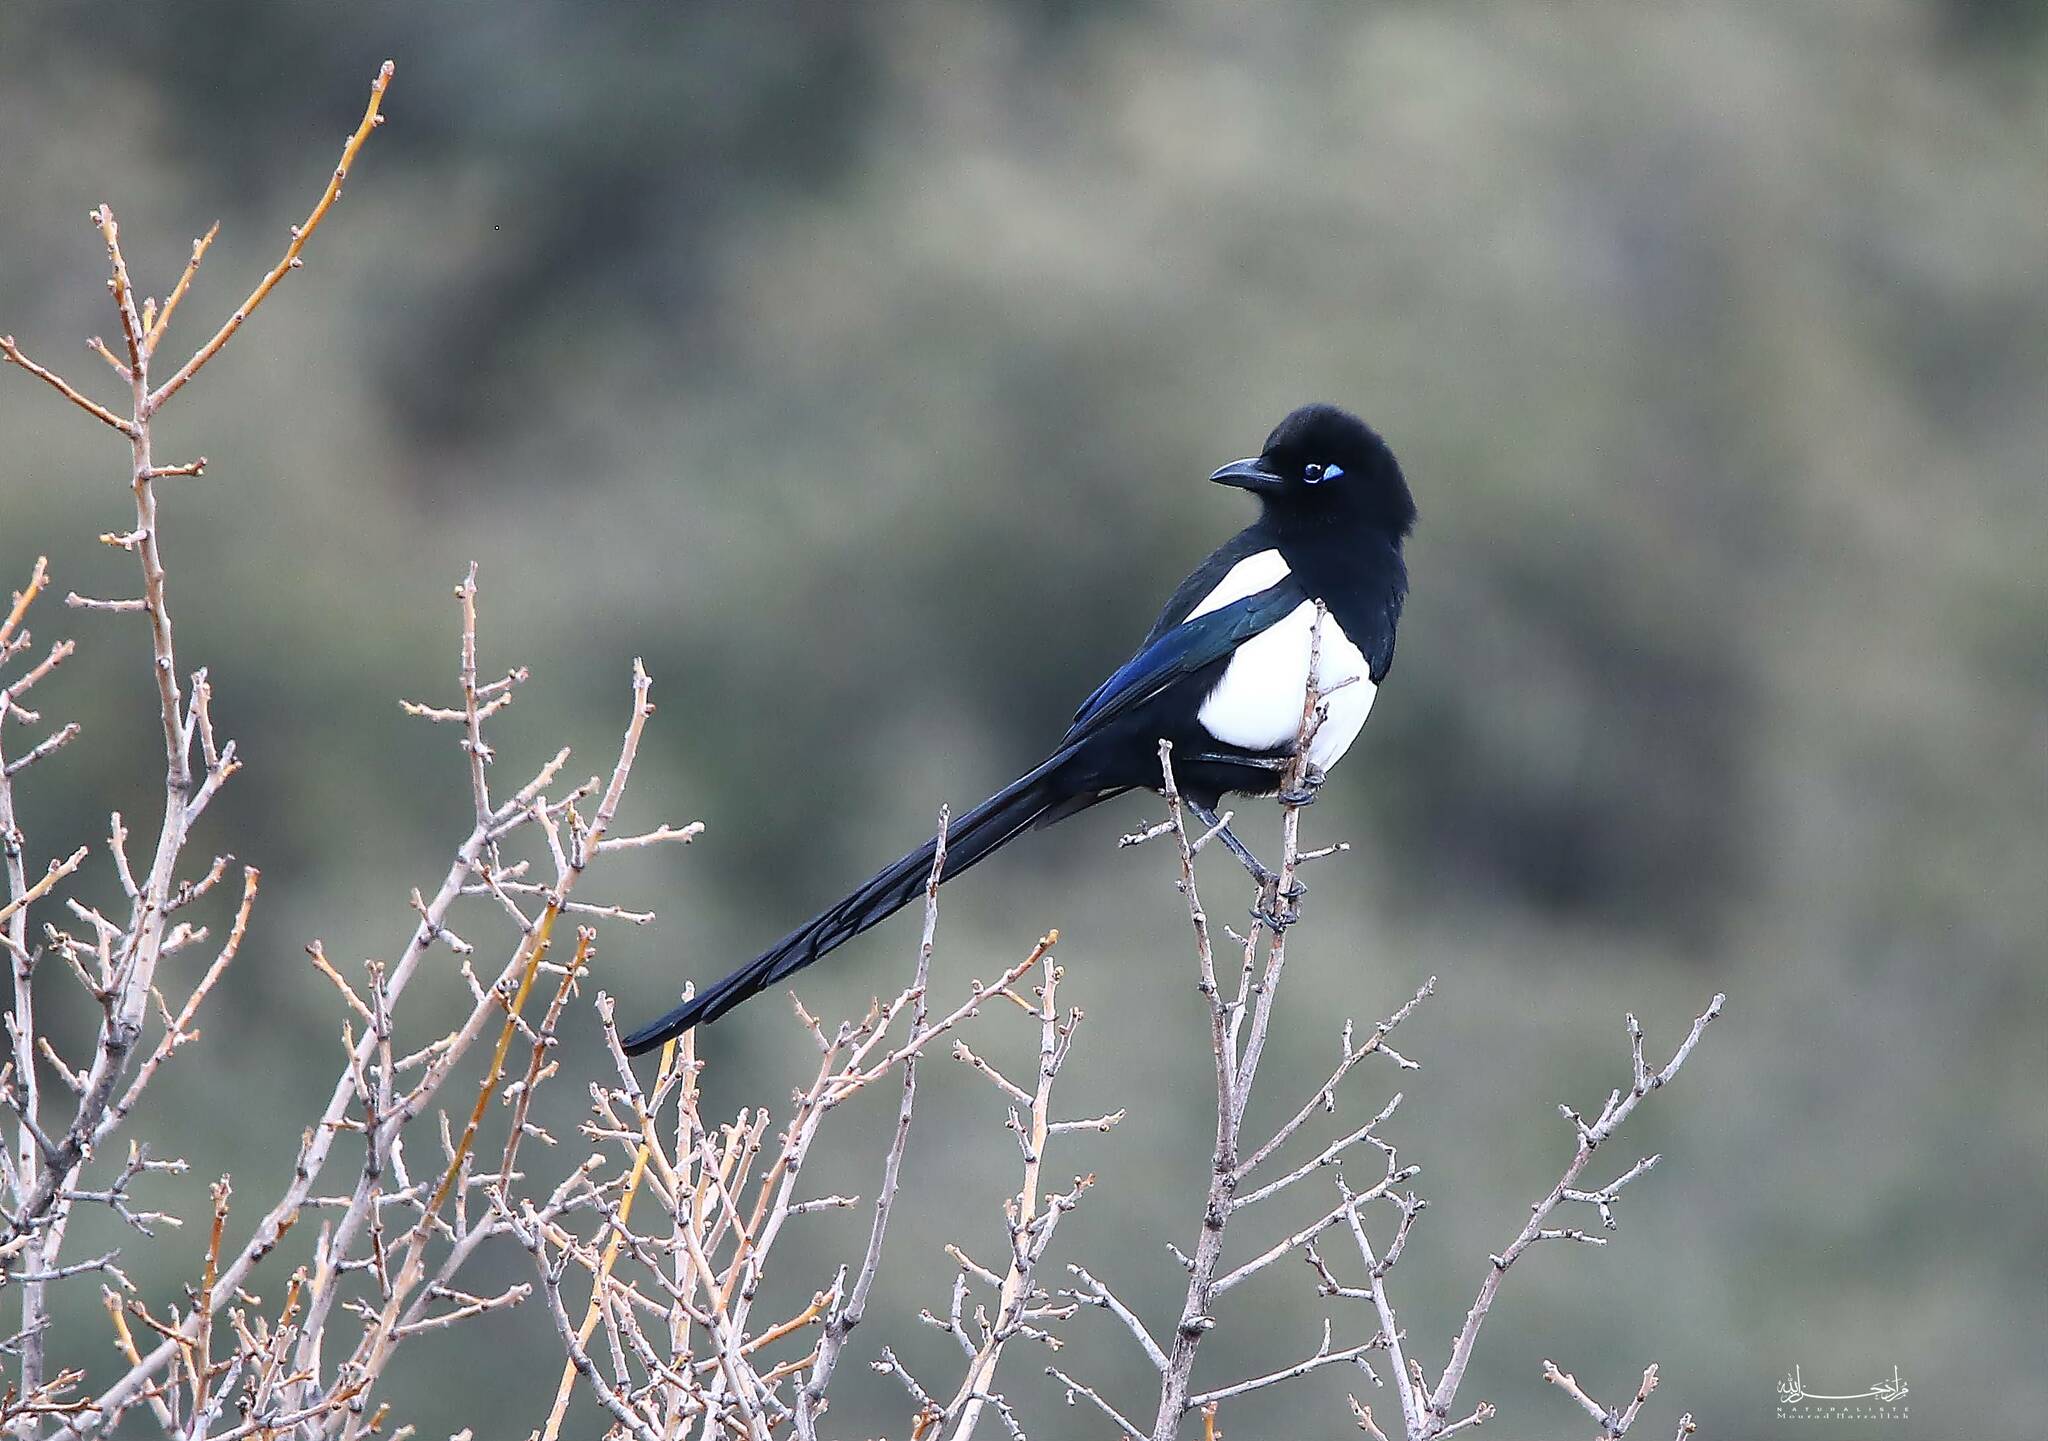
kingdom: Animalia
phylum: Chordata
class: Aves
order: Passeriformes
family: Corvidae
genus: Pica
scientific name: Pica mauritanica
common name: Maghreb magpie
